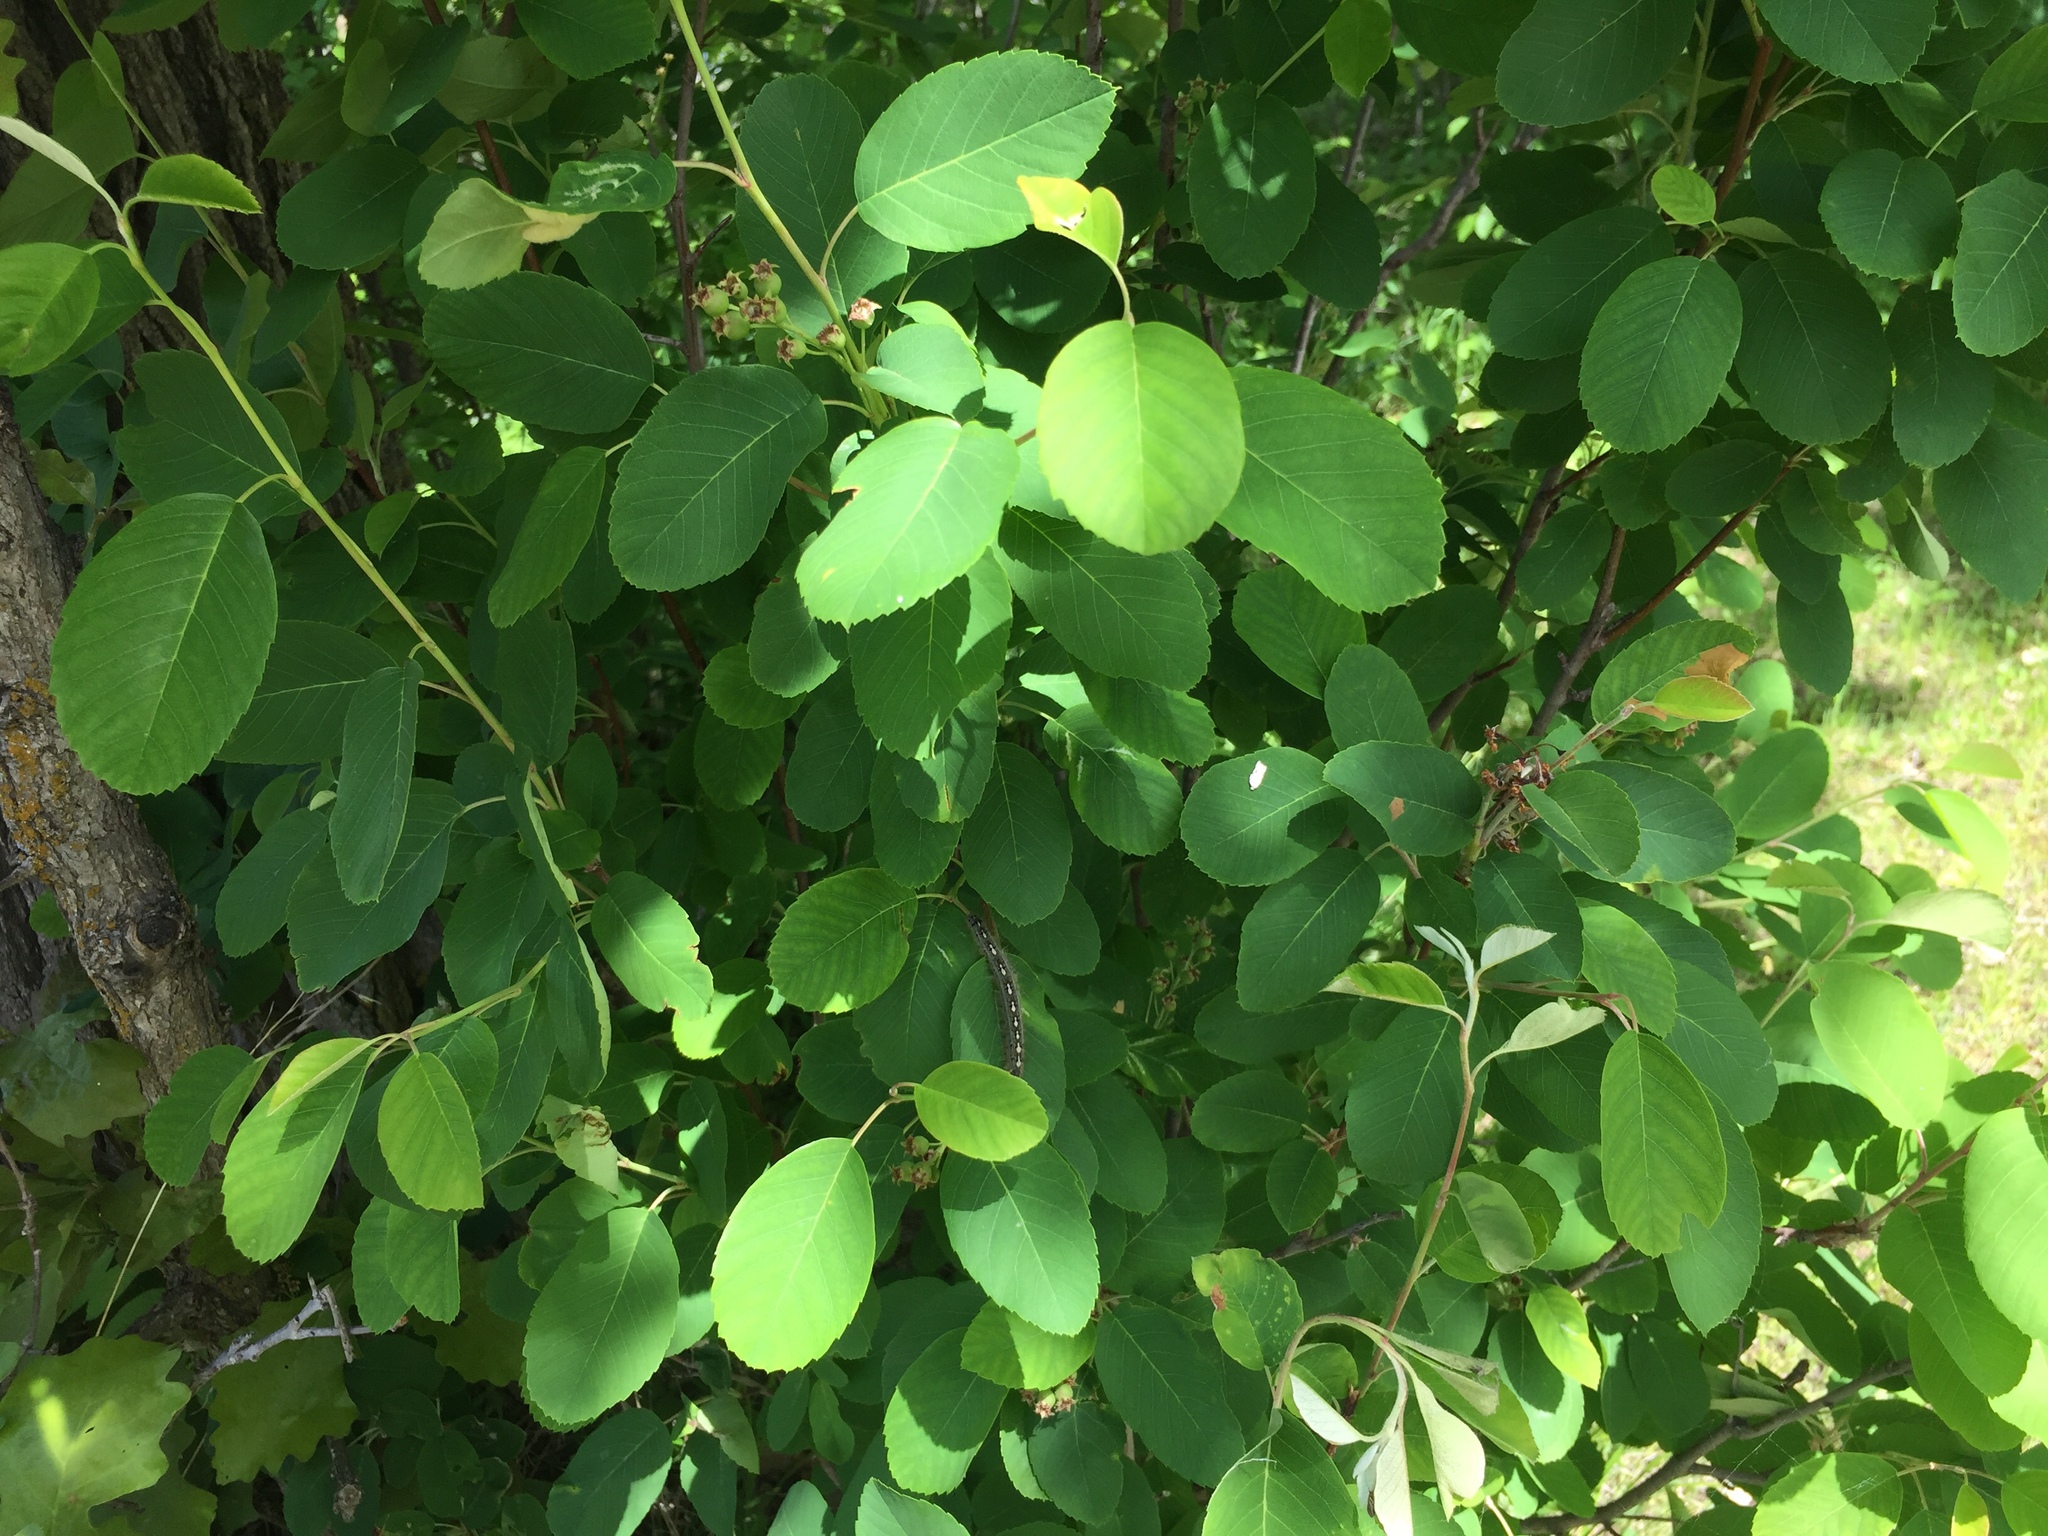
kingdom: Plantae
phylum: Tracheophyta
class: Magnoliopsida
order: Rosales
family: Rosaceae
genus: Amelanchier
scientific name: Amelanchier alnifolia
